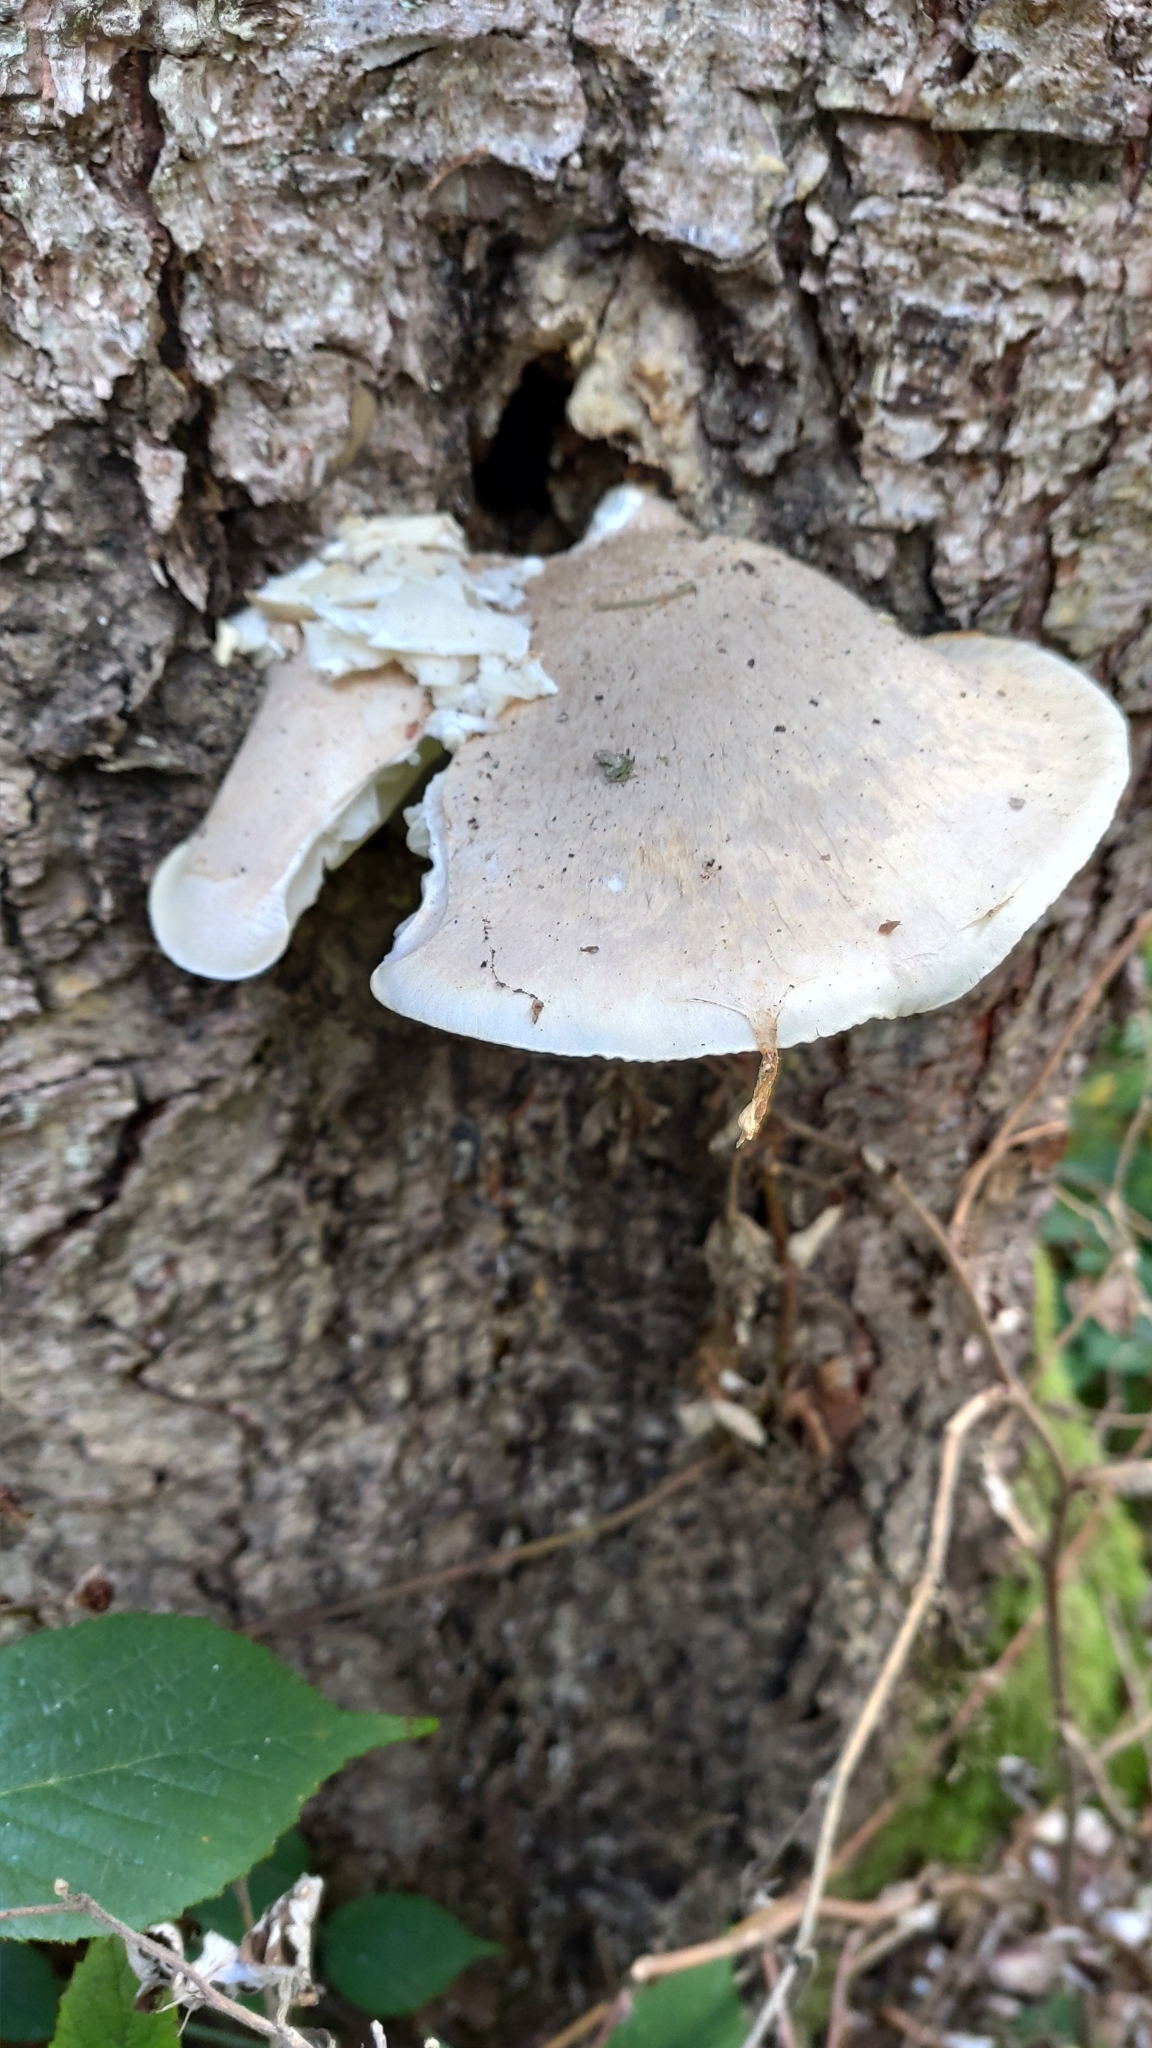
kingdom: Fungi
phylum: Basidiomycota
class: Agaricomycetes
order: Agaricales
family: Pleurotaceae
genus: Pleurotus
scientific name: Pleurotus dryinus
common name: Veiled oyster
